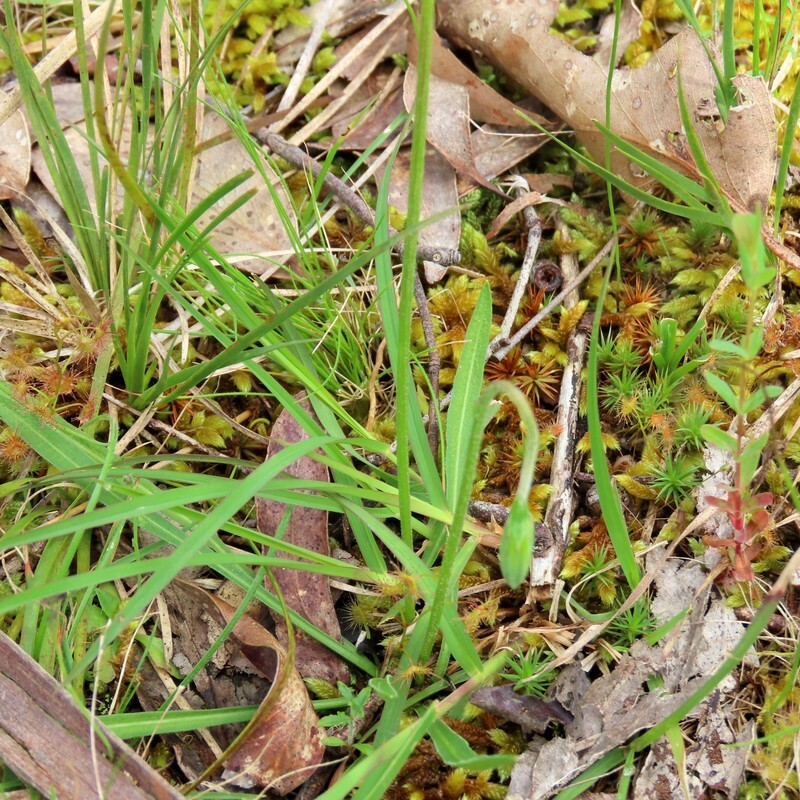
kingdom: Plantae
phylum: Tracheophyta
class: Magnoliopsida
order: Asterales
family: Asteraceae
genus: Microseris
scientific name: Microseris lanceolata
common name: Yam daisy
